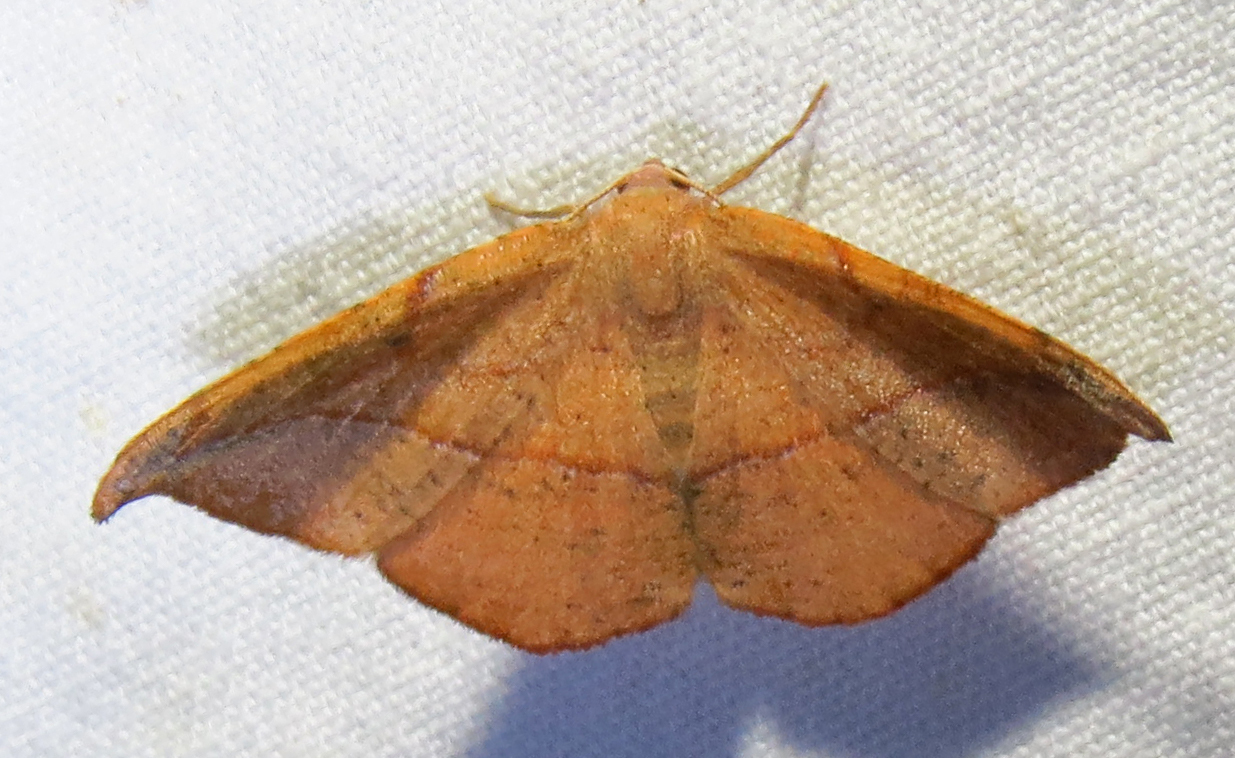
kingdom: Animalia
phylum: Arthropoda
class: Insecta
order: Lepidoptera
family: Geometridae
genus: Patalene
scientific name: Patalene olyzonaria
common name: Juniper geometer moth
